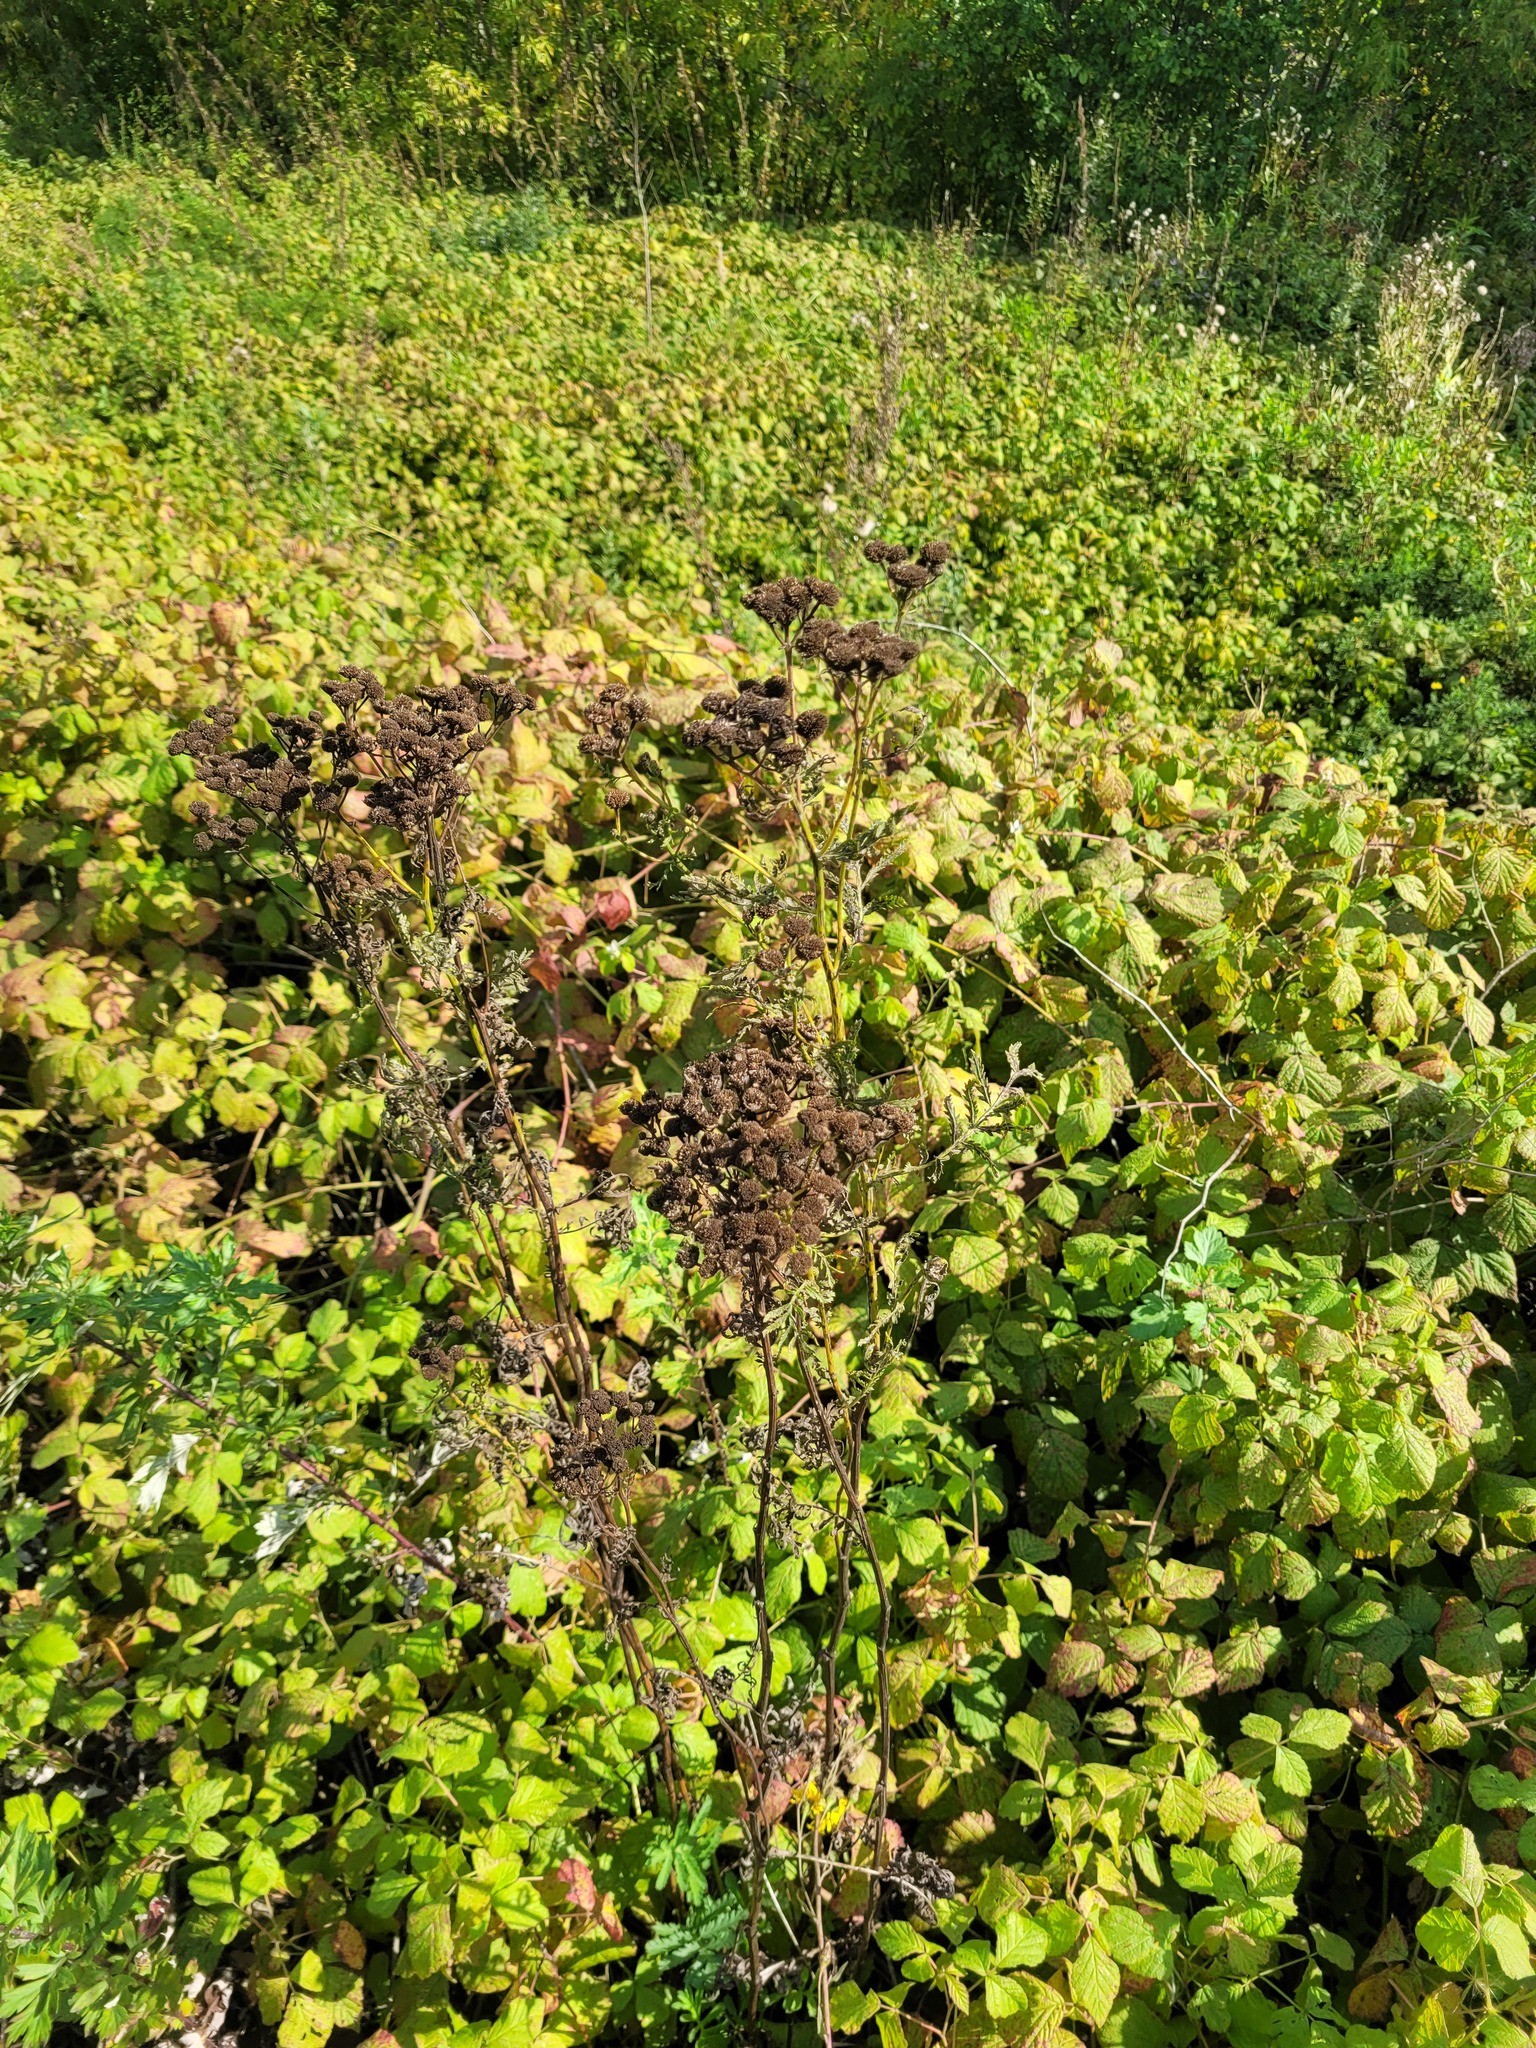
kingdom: Plantae
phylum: Tracheophyta
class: Magnoliopsida
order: Asterales
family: Asteraceae
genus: Tanacetum
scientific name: Tanacetum vulgare
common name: Common tansy
